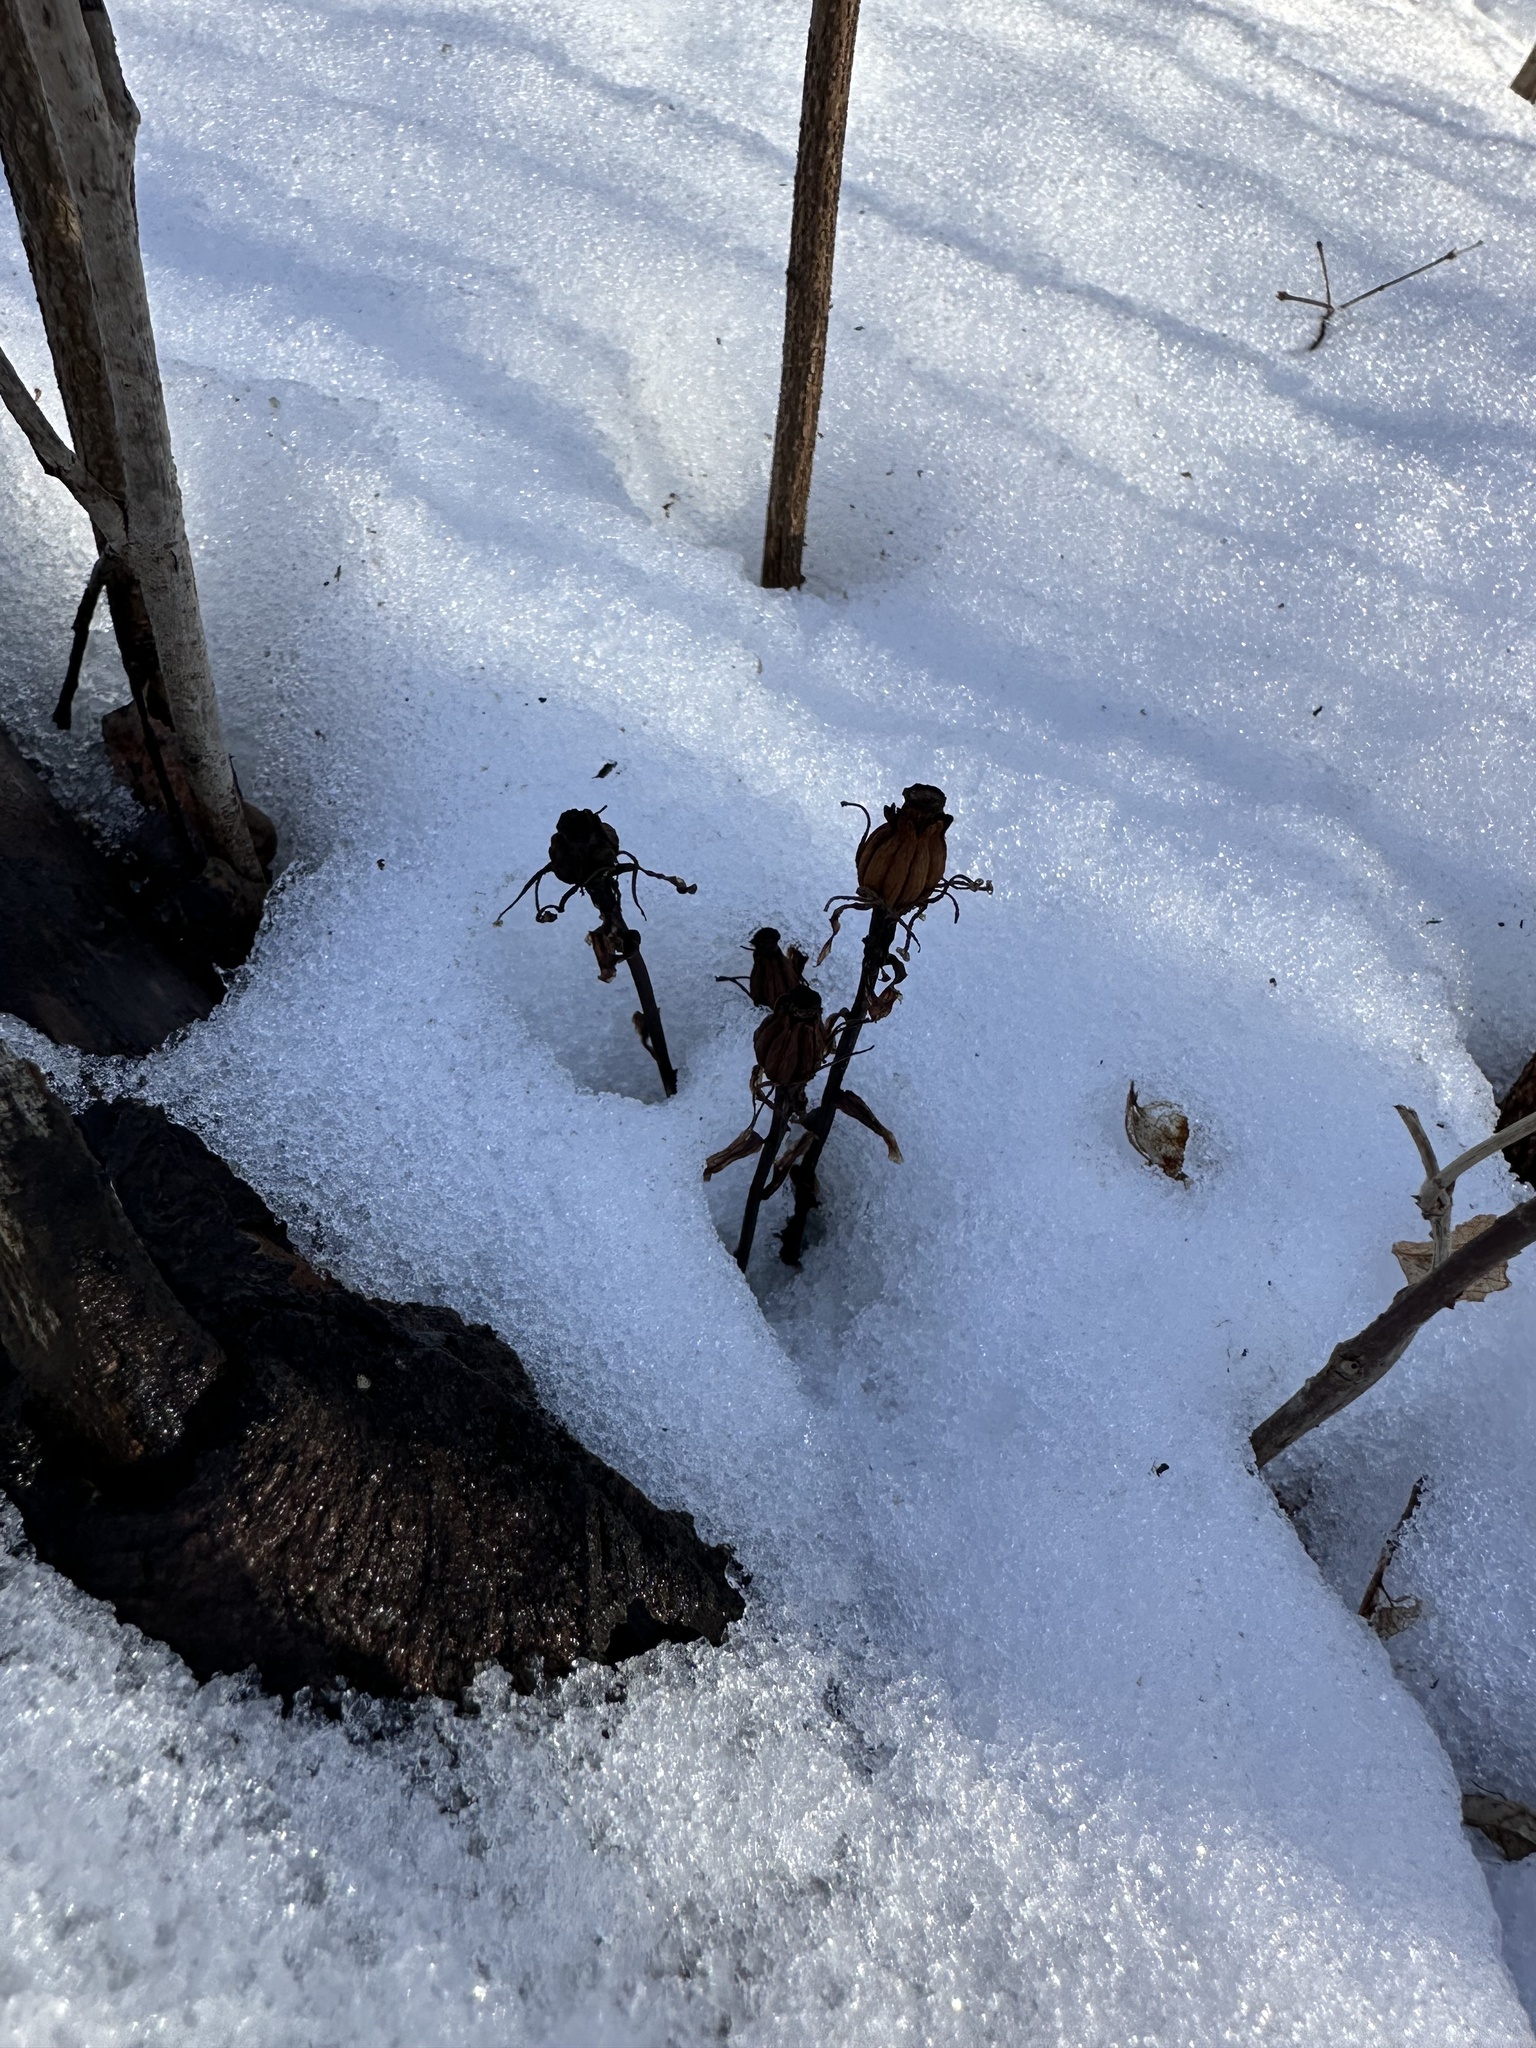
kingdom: Plantae
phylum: Tracheophyta
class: Magnoliopsida
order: Ericales
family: Ericaceae
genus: Monotropa
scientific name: Monotropa uniflora
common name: Convulsion root
